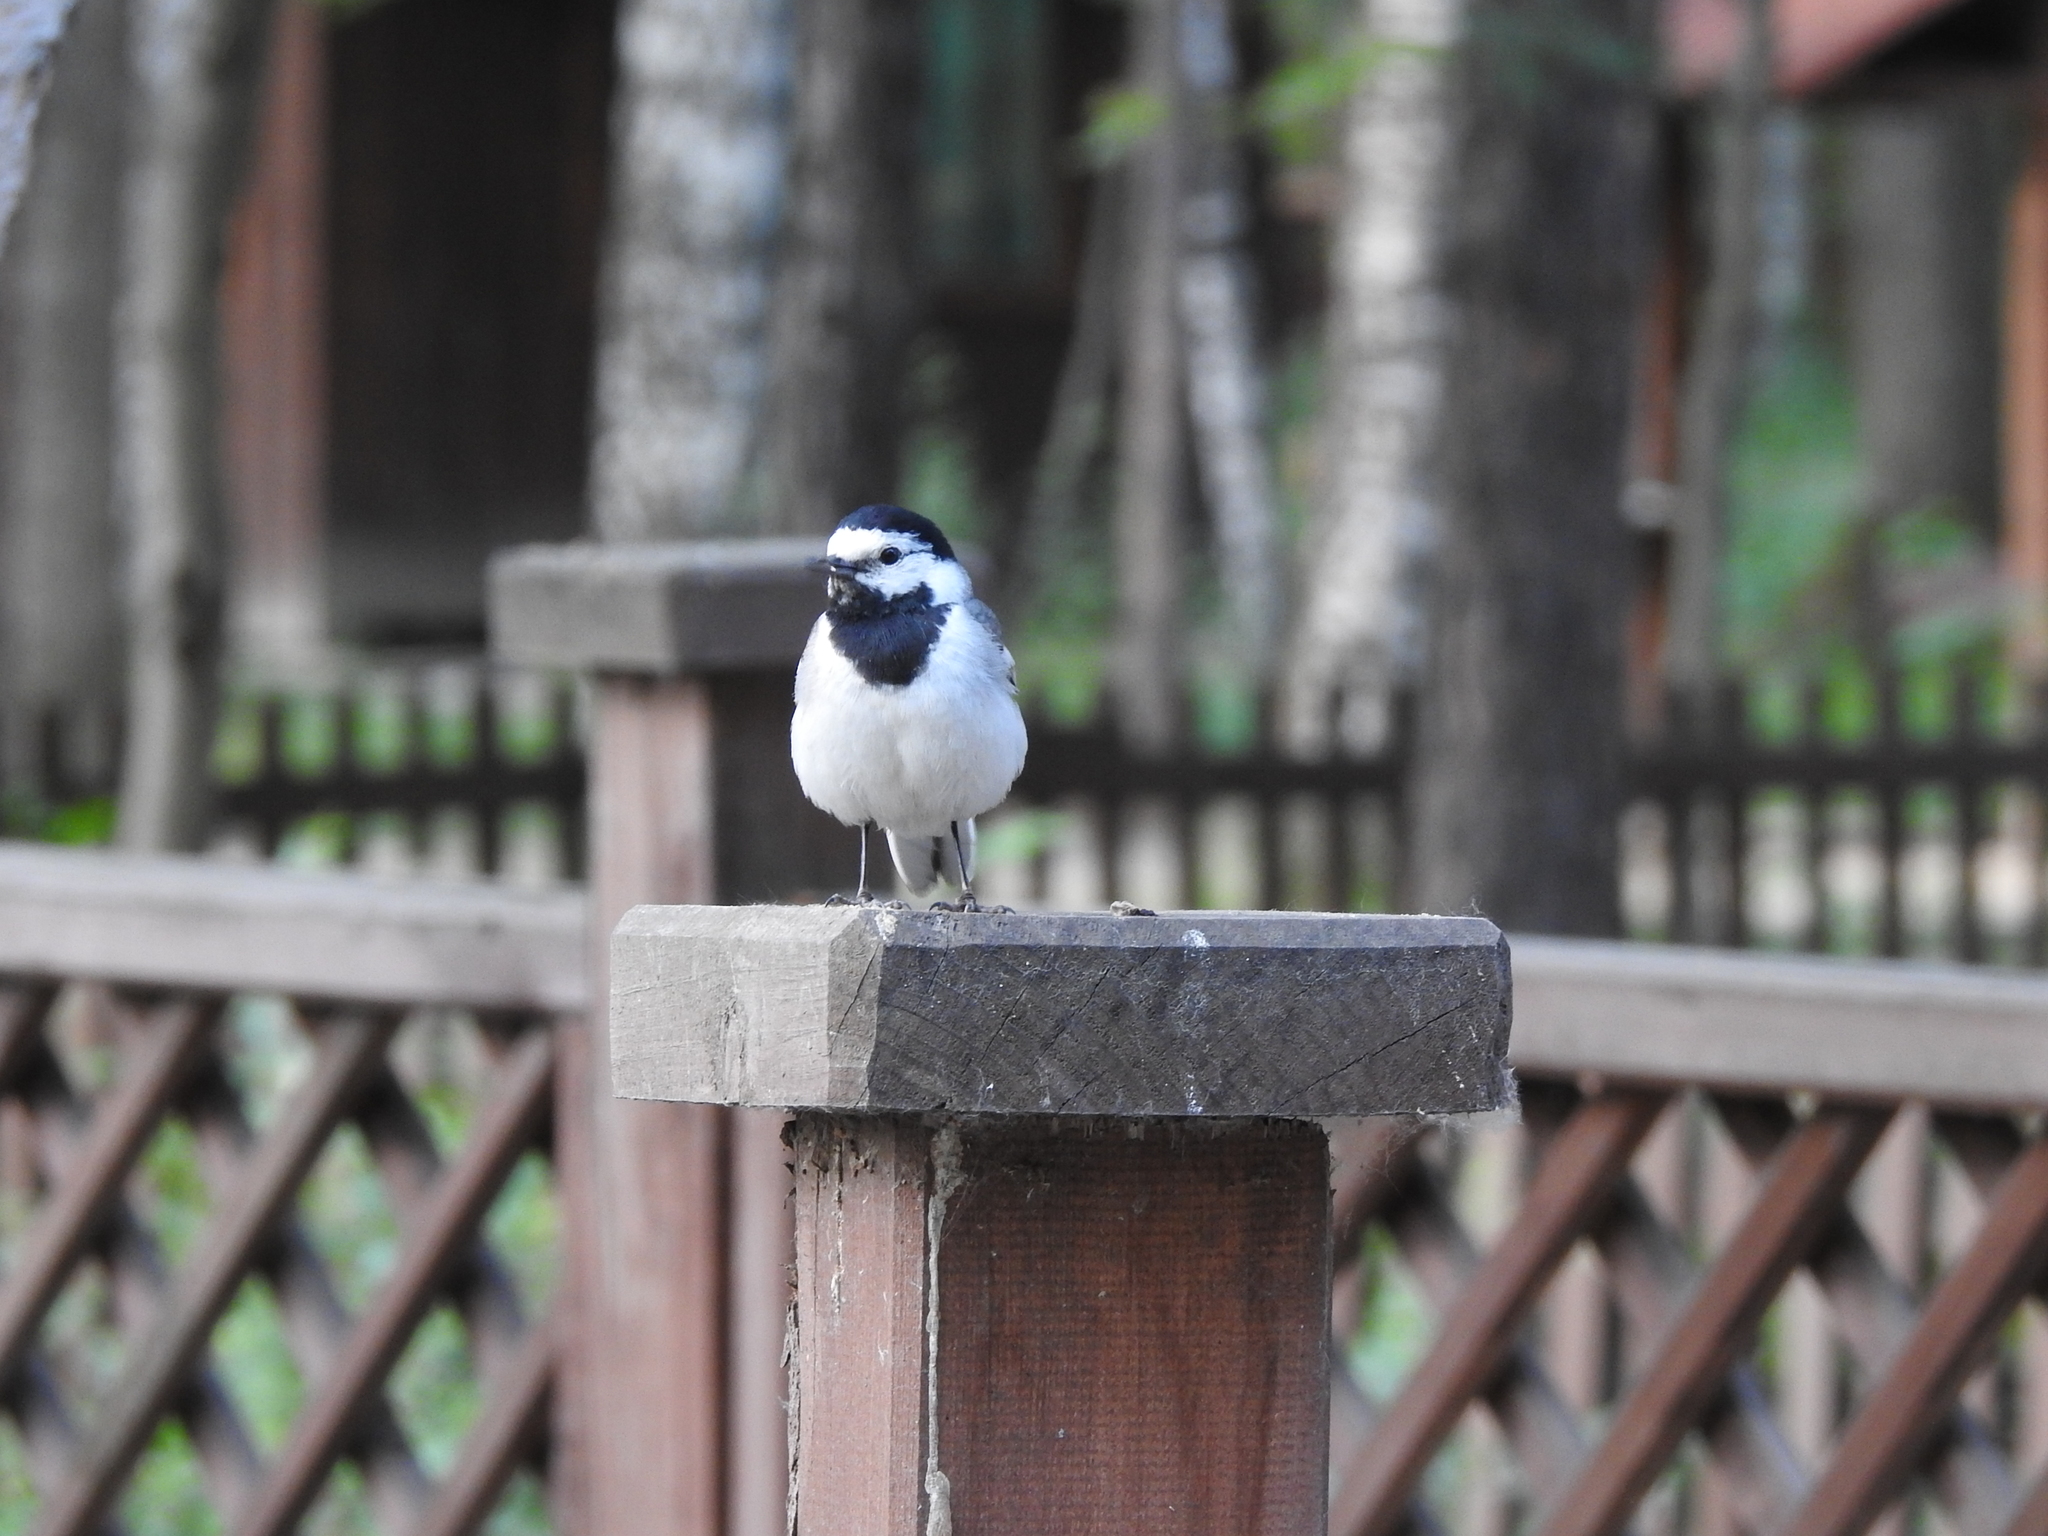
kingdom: Animalia
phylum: Chordata
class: Aves
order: Passeriformes
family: Motacillidae
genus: Motacilla
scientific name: Motacilla alba
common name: White wagtail
